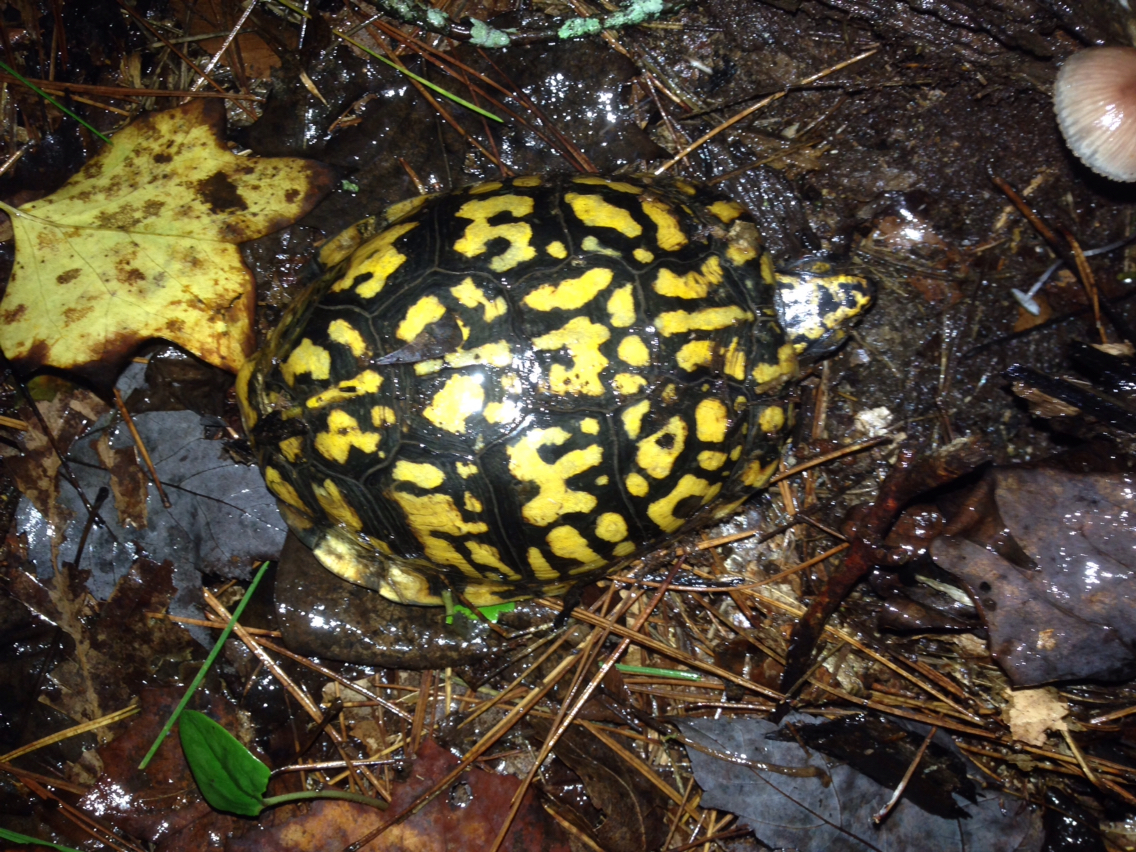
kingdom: Animalia
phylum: Chordata
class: Testudines
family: Emydidae
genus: Terrapene
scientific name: Terrapene carolina
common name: Common box turtle
